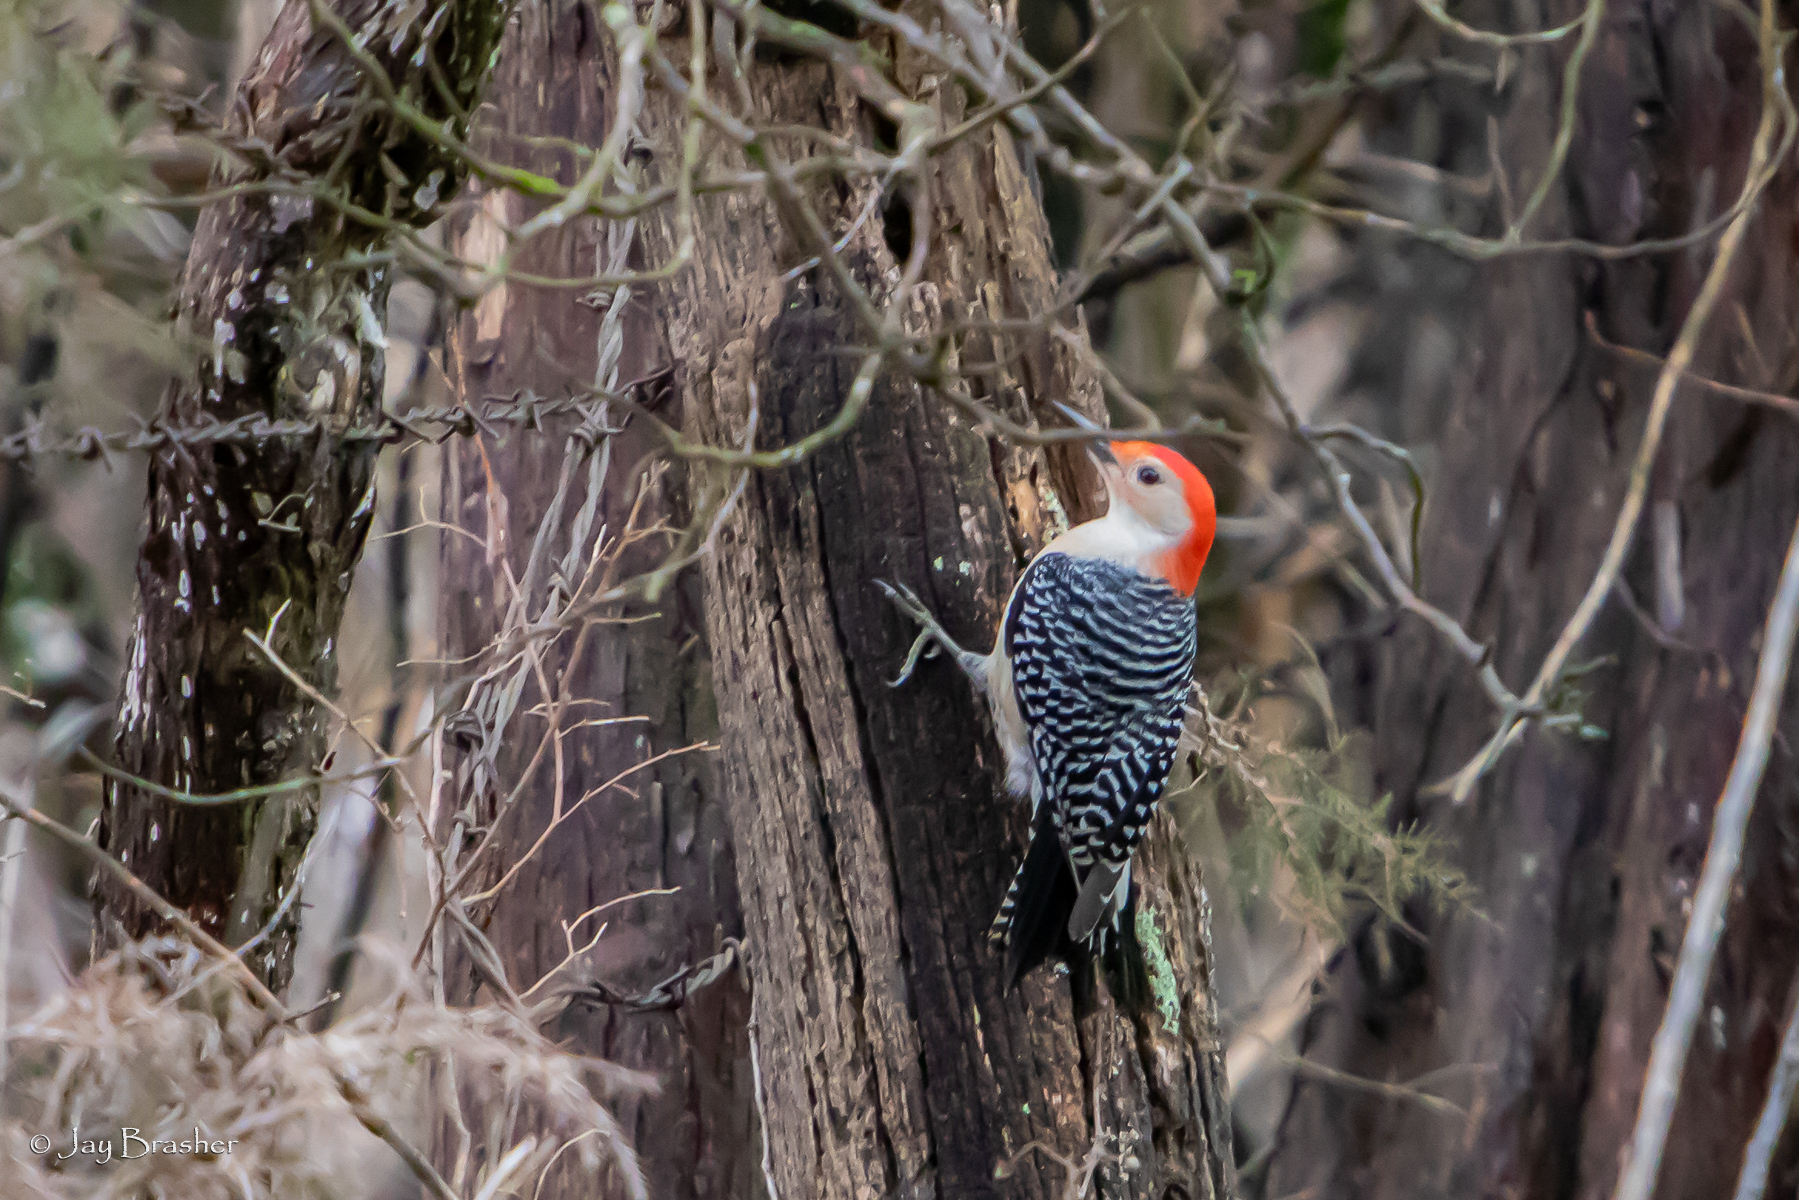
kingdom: Animalia
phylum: Chordata
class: Aves
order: Piciformes
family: Picidae
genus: Melanerpes
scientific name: Melanerpes carolinus
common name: Red-bellied woodpecker
